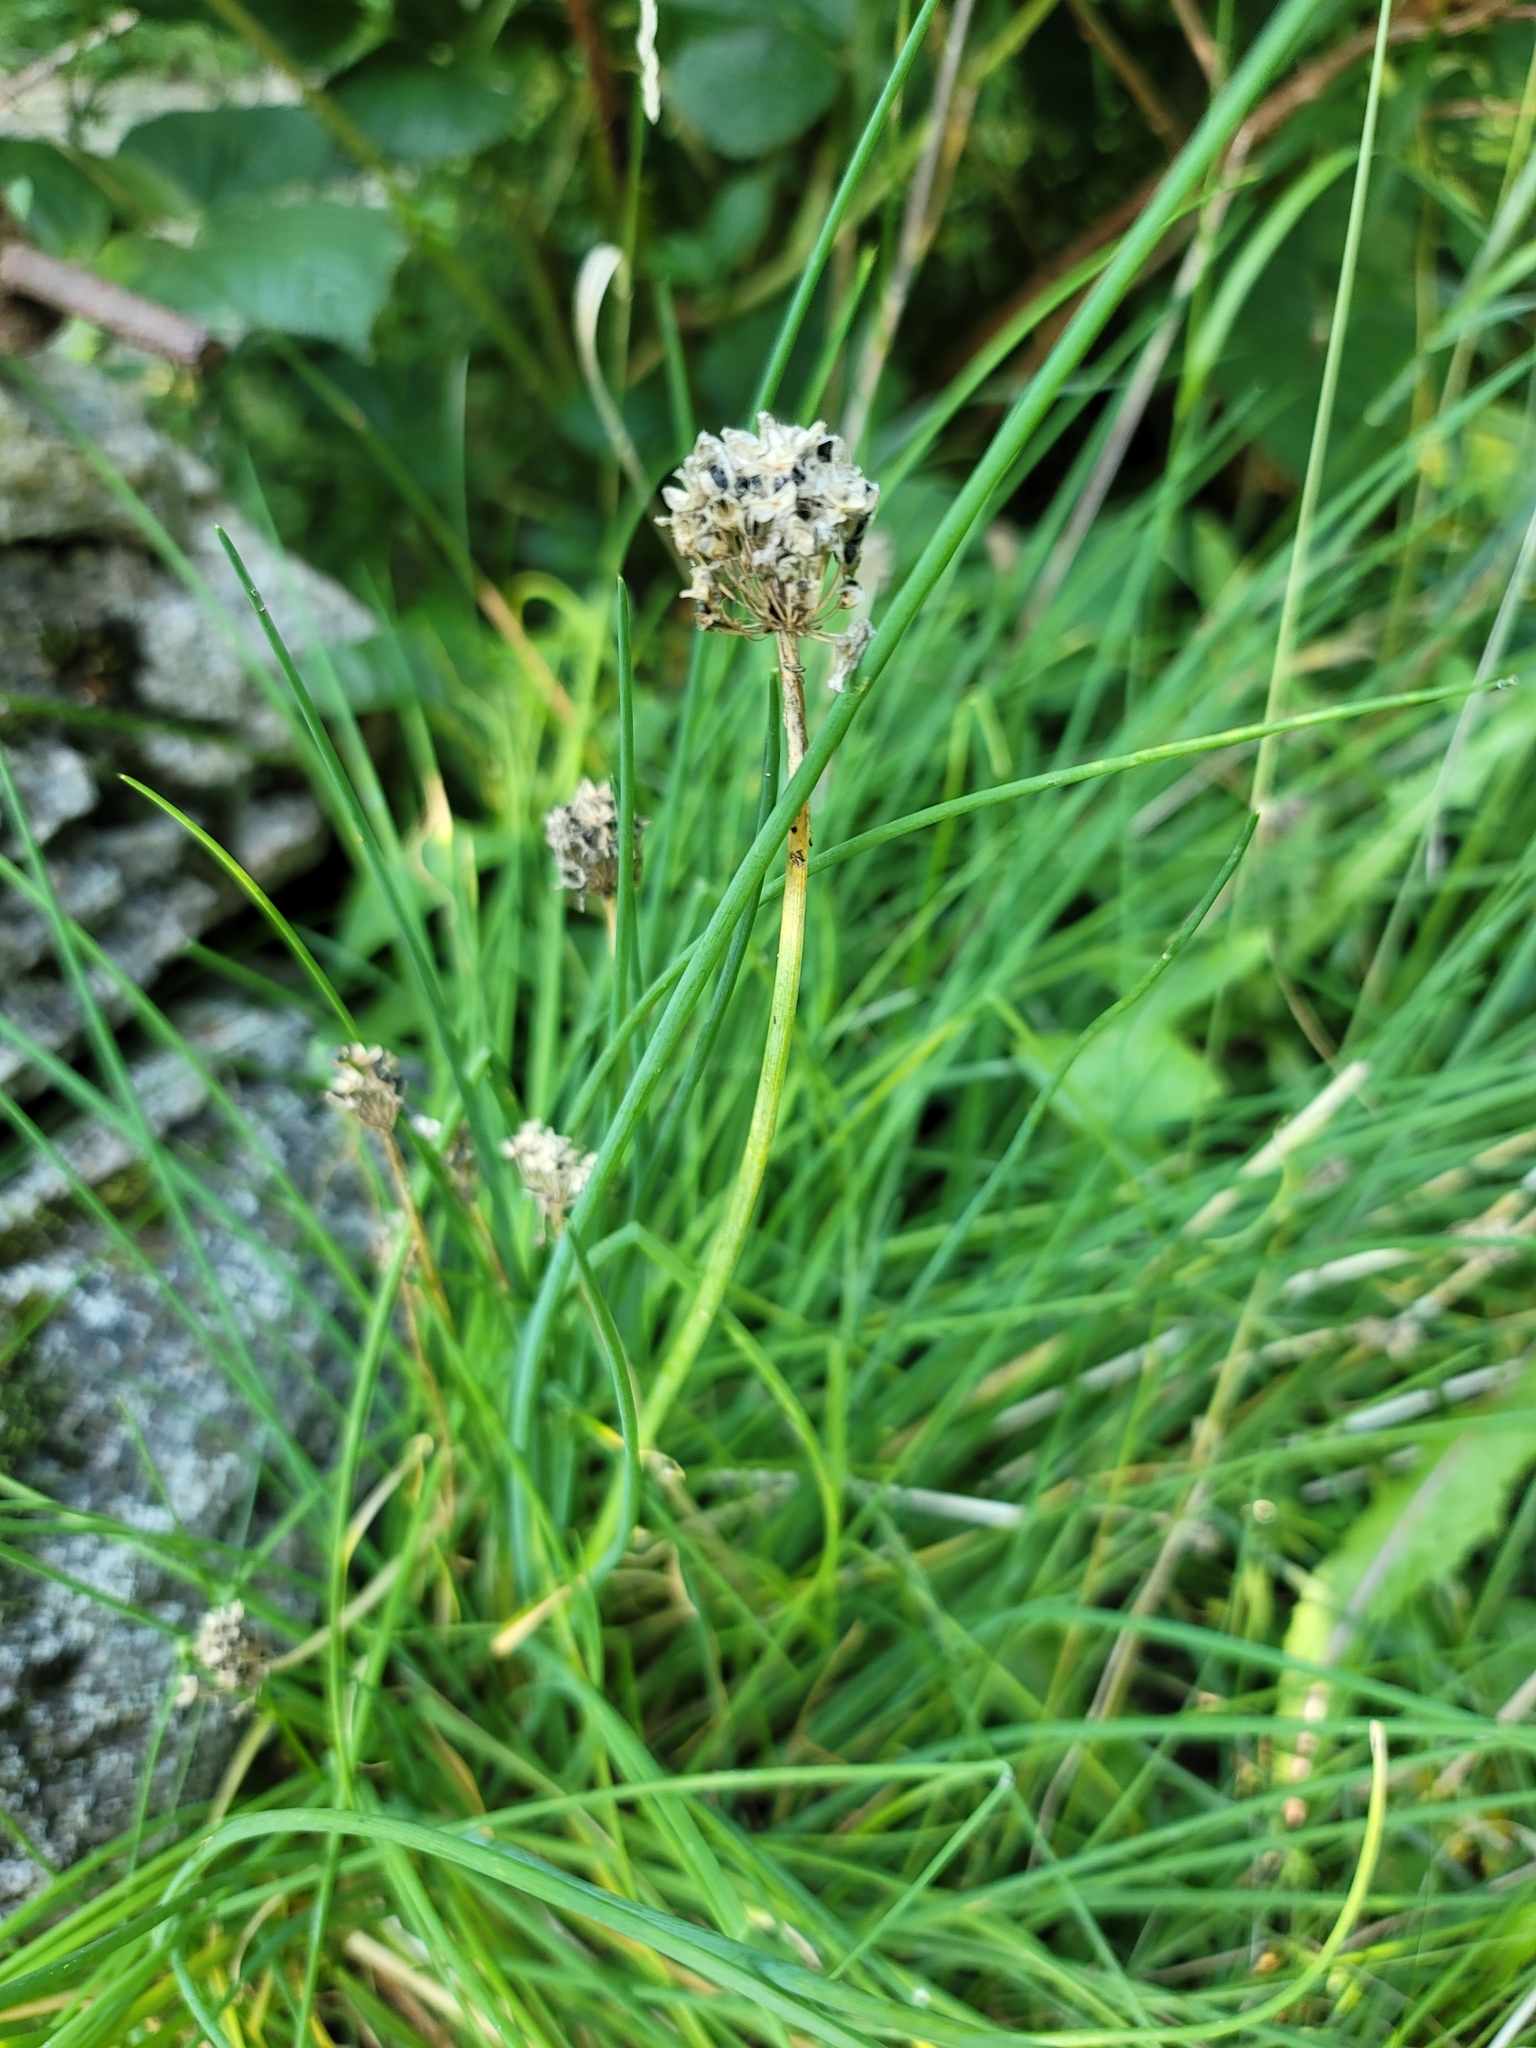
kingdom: Plantae
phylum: Tracheophyta
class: Liliopsida
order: Asparagales
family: Amaryllidaceae
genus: Allium
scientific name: Allium schoenoprasum
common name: Chives
